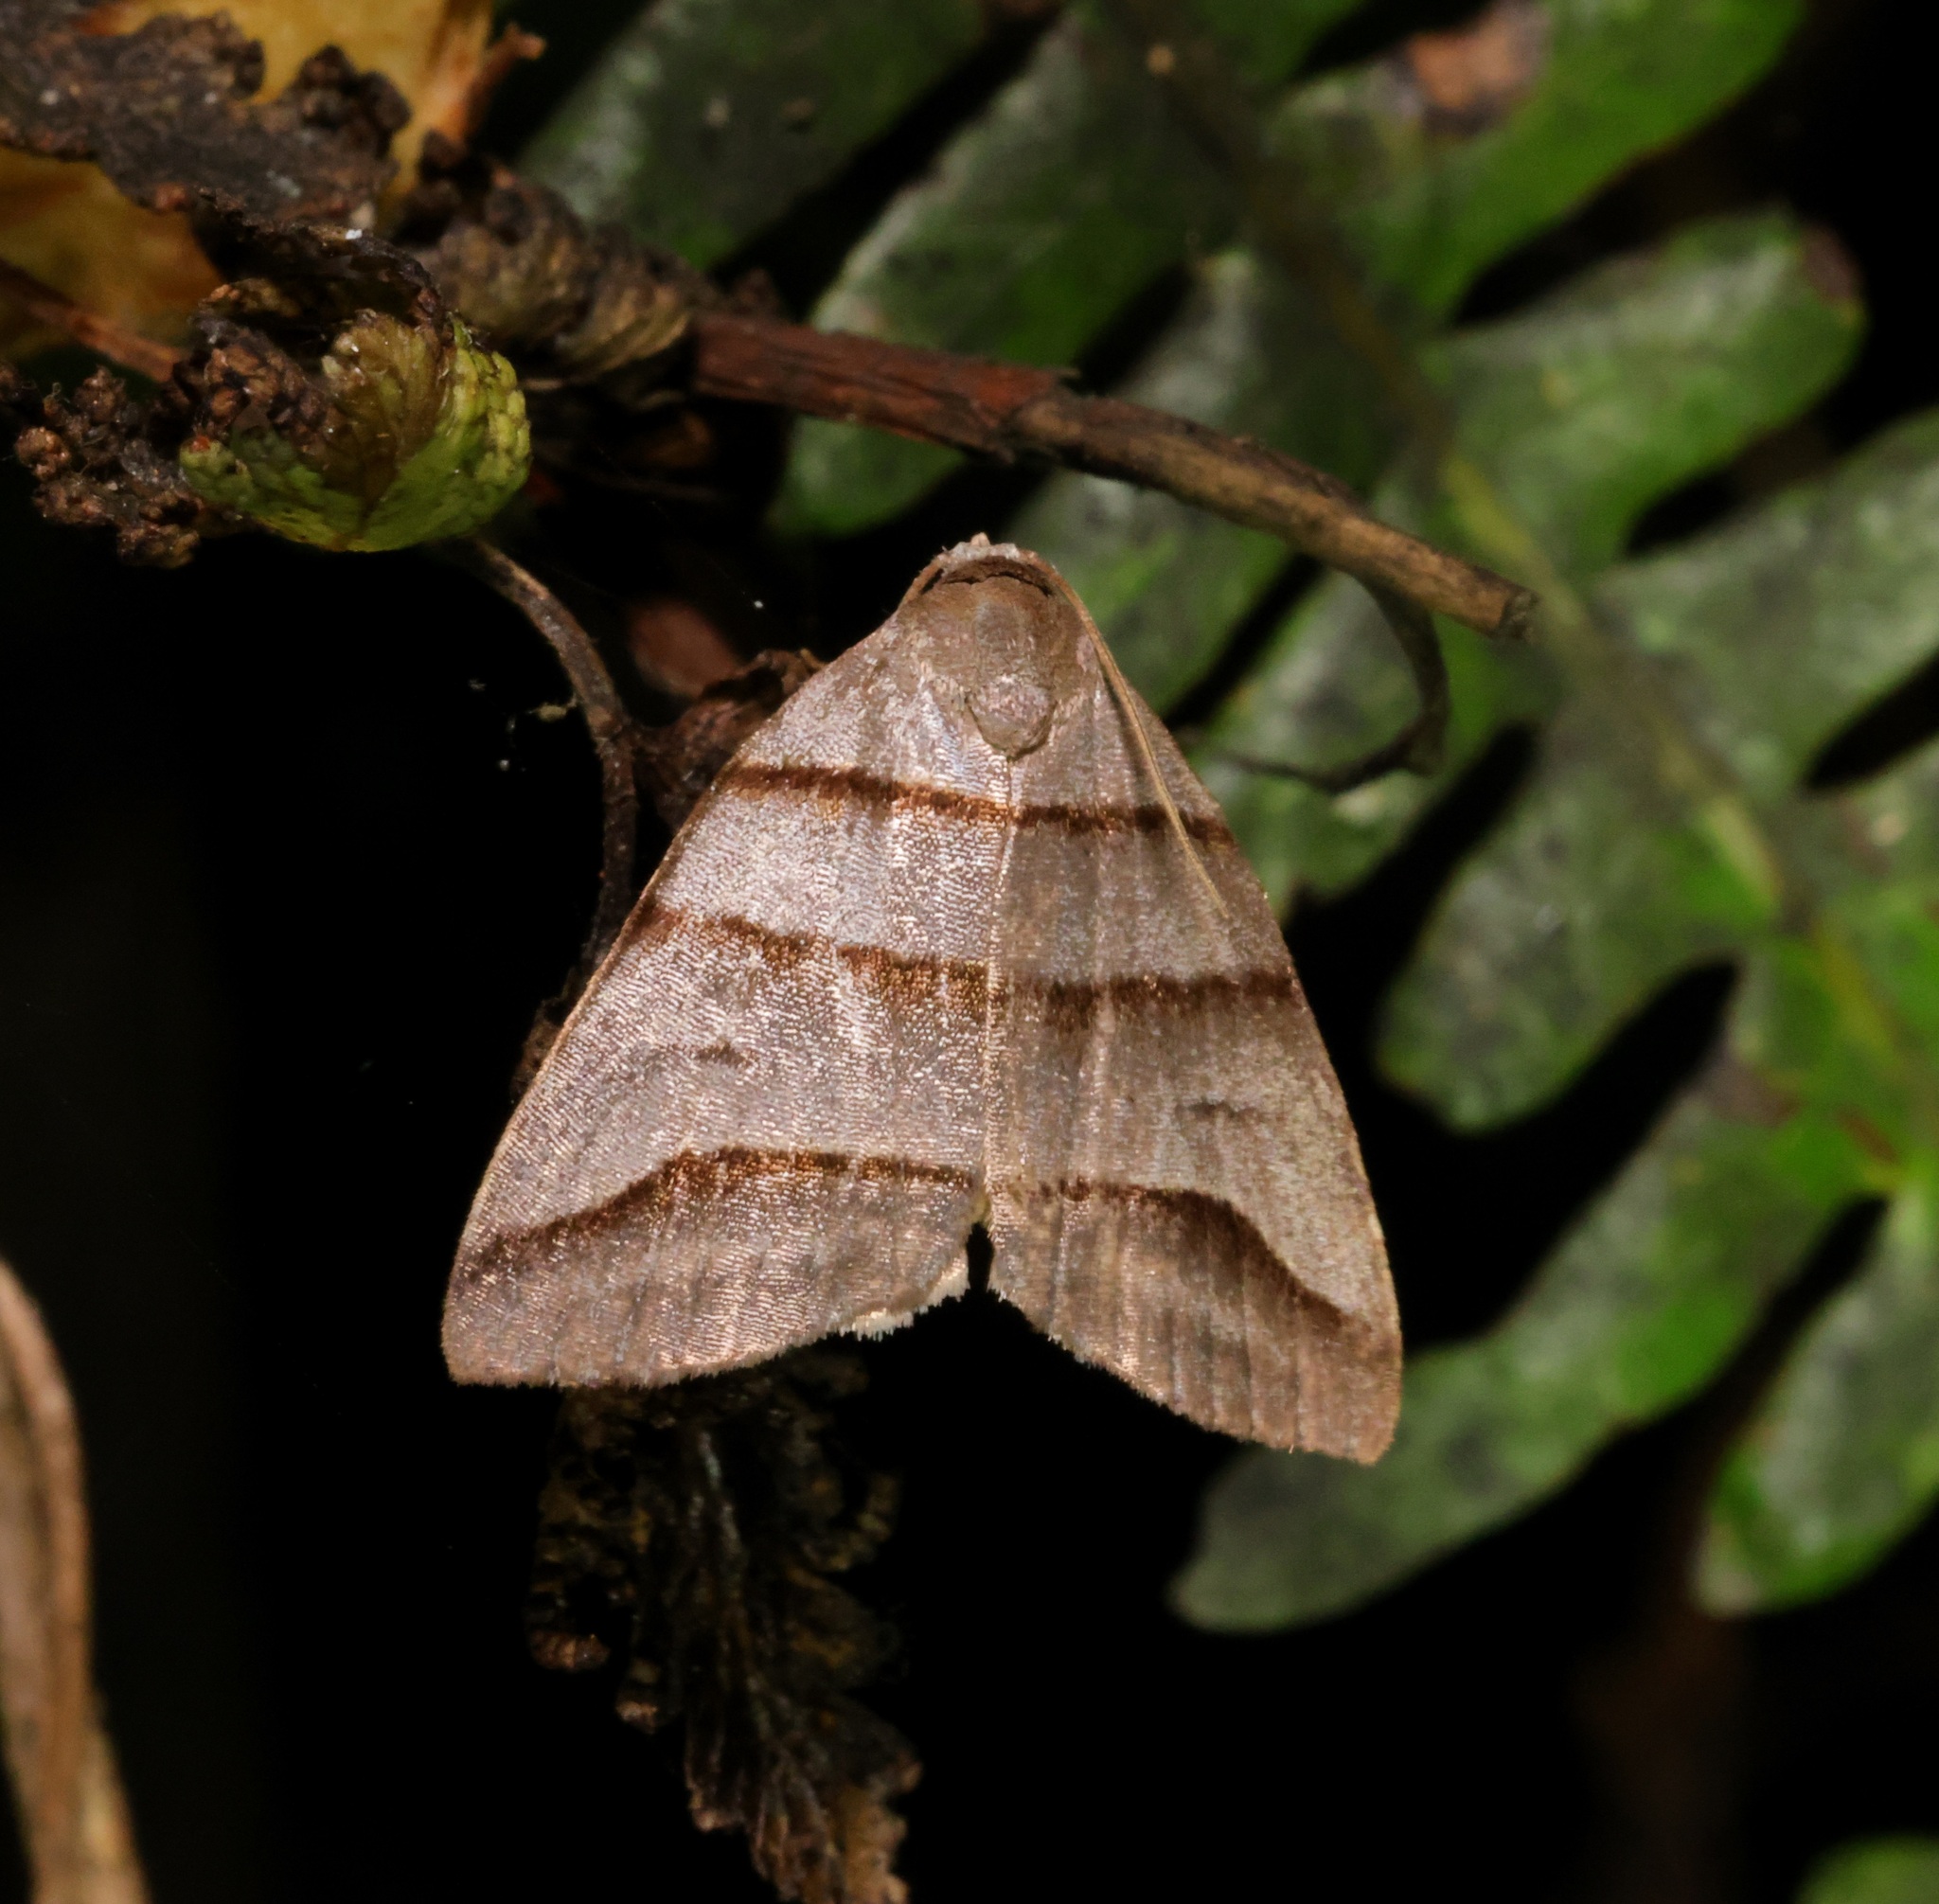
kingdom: Animalia
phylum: Arthropoda
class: Insecta
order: Lepidoptera
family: Noctuidae
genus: Flammona
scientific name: Flammona trilineata
